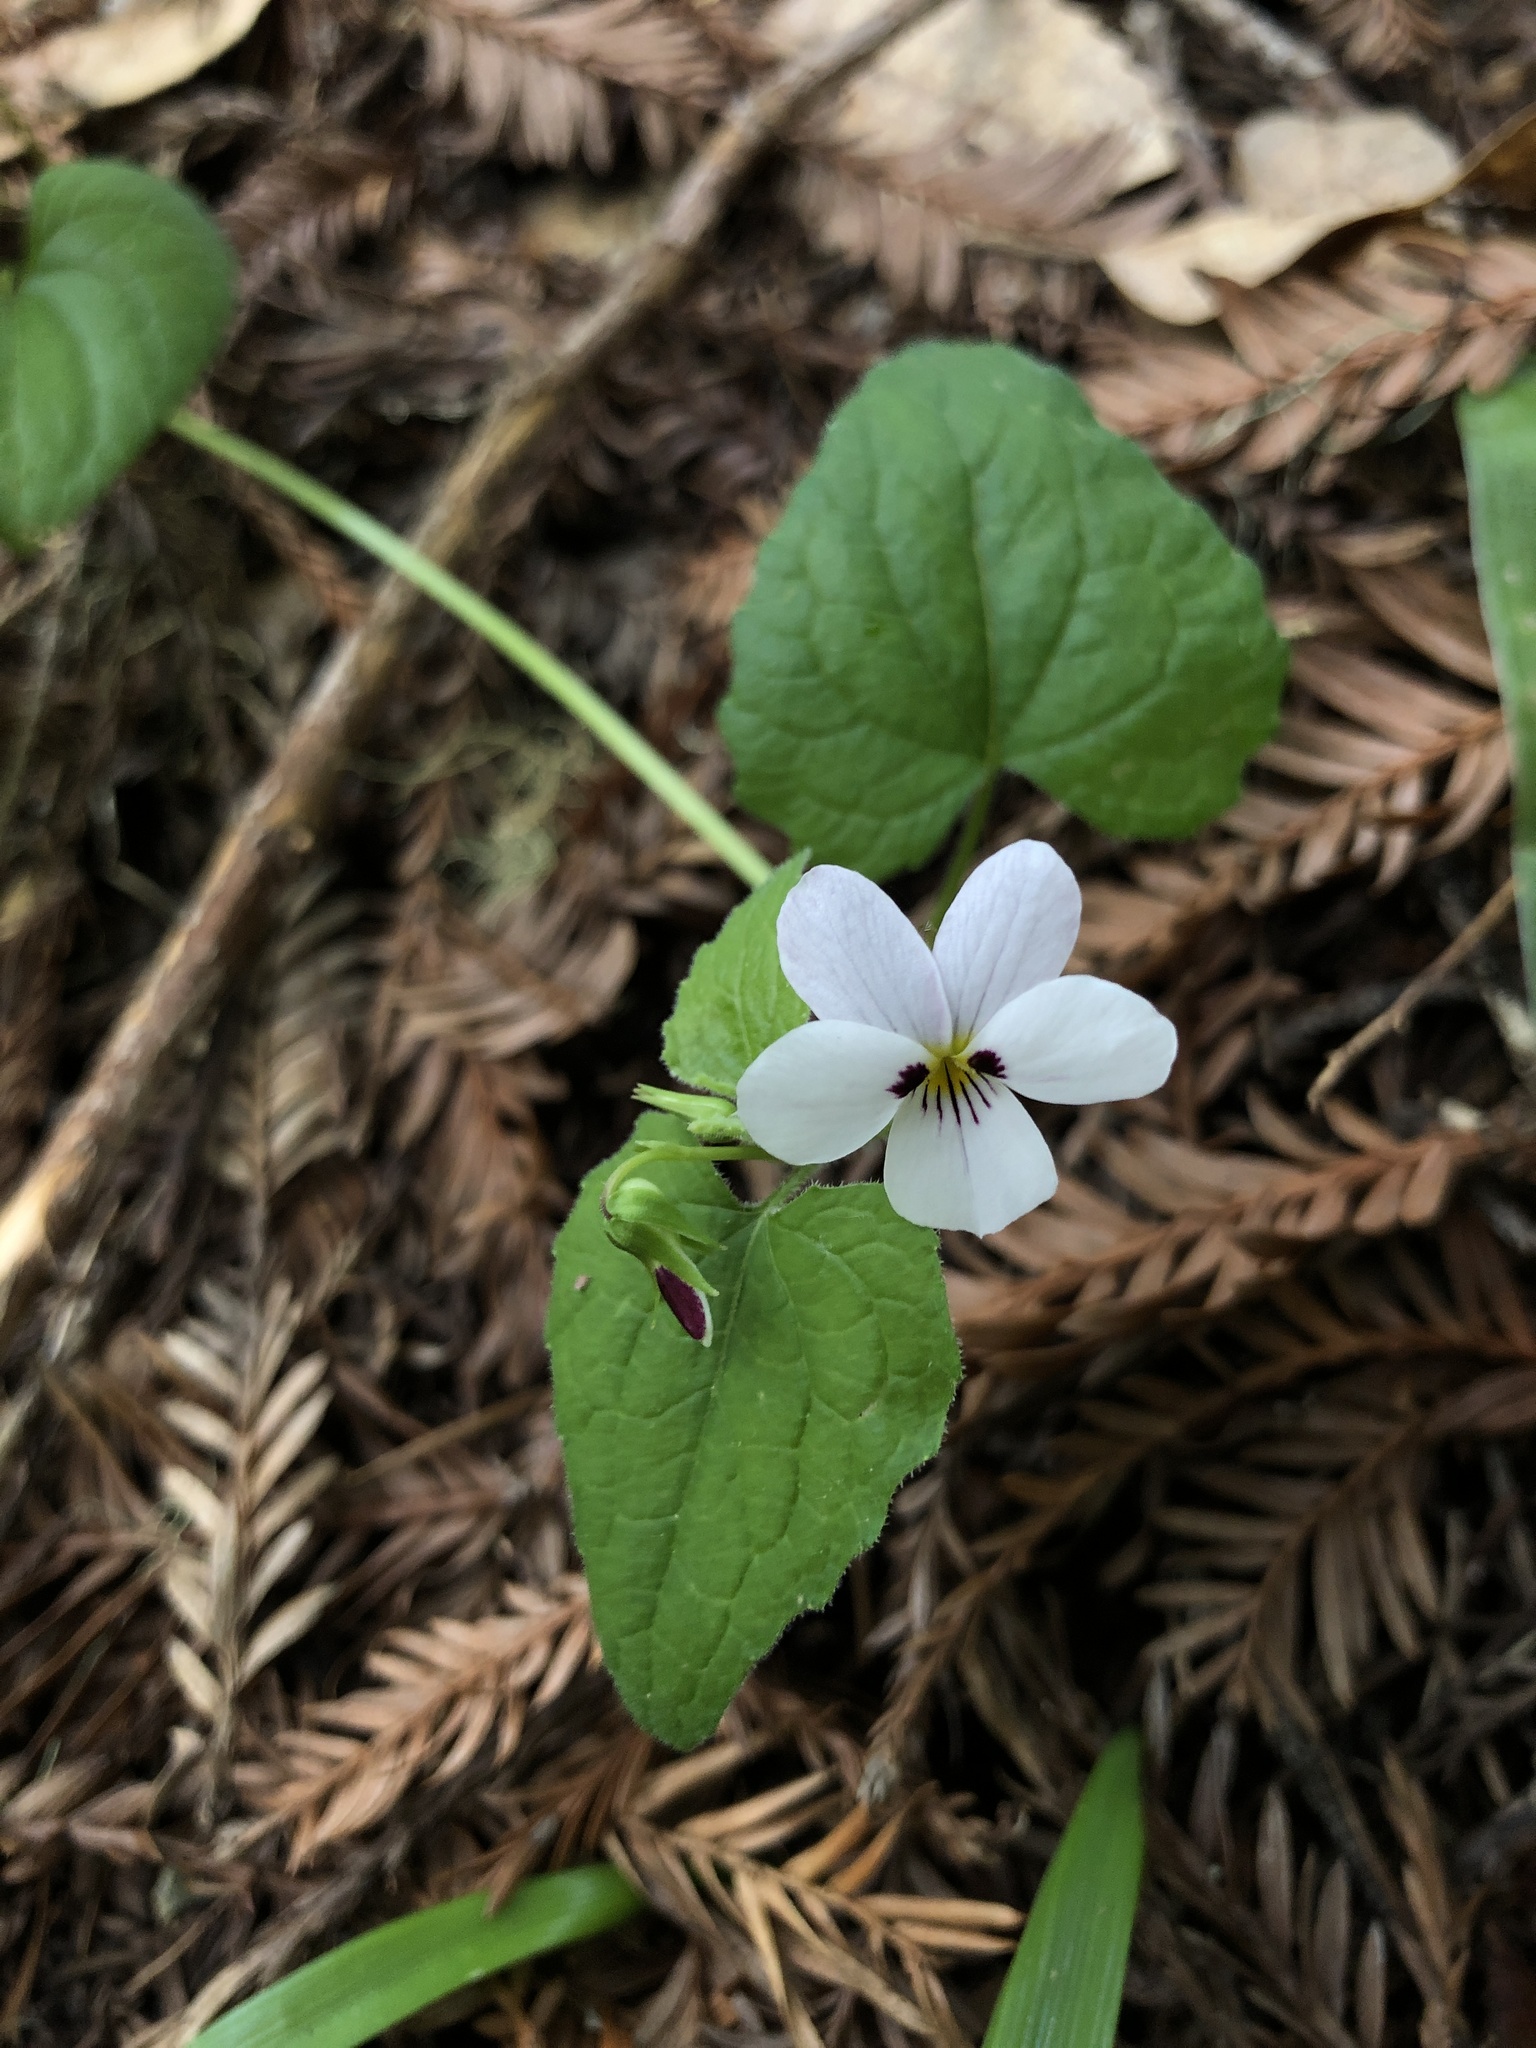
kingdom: Plantae
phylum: Tracheophyta
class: Magnoliopsida
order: Malpighiales
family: Violaceae
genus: Viola
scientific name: Viola ocellata
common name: Western heart's ease
